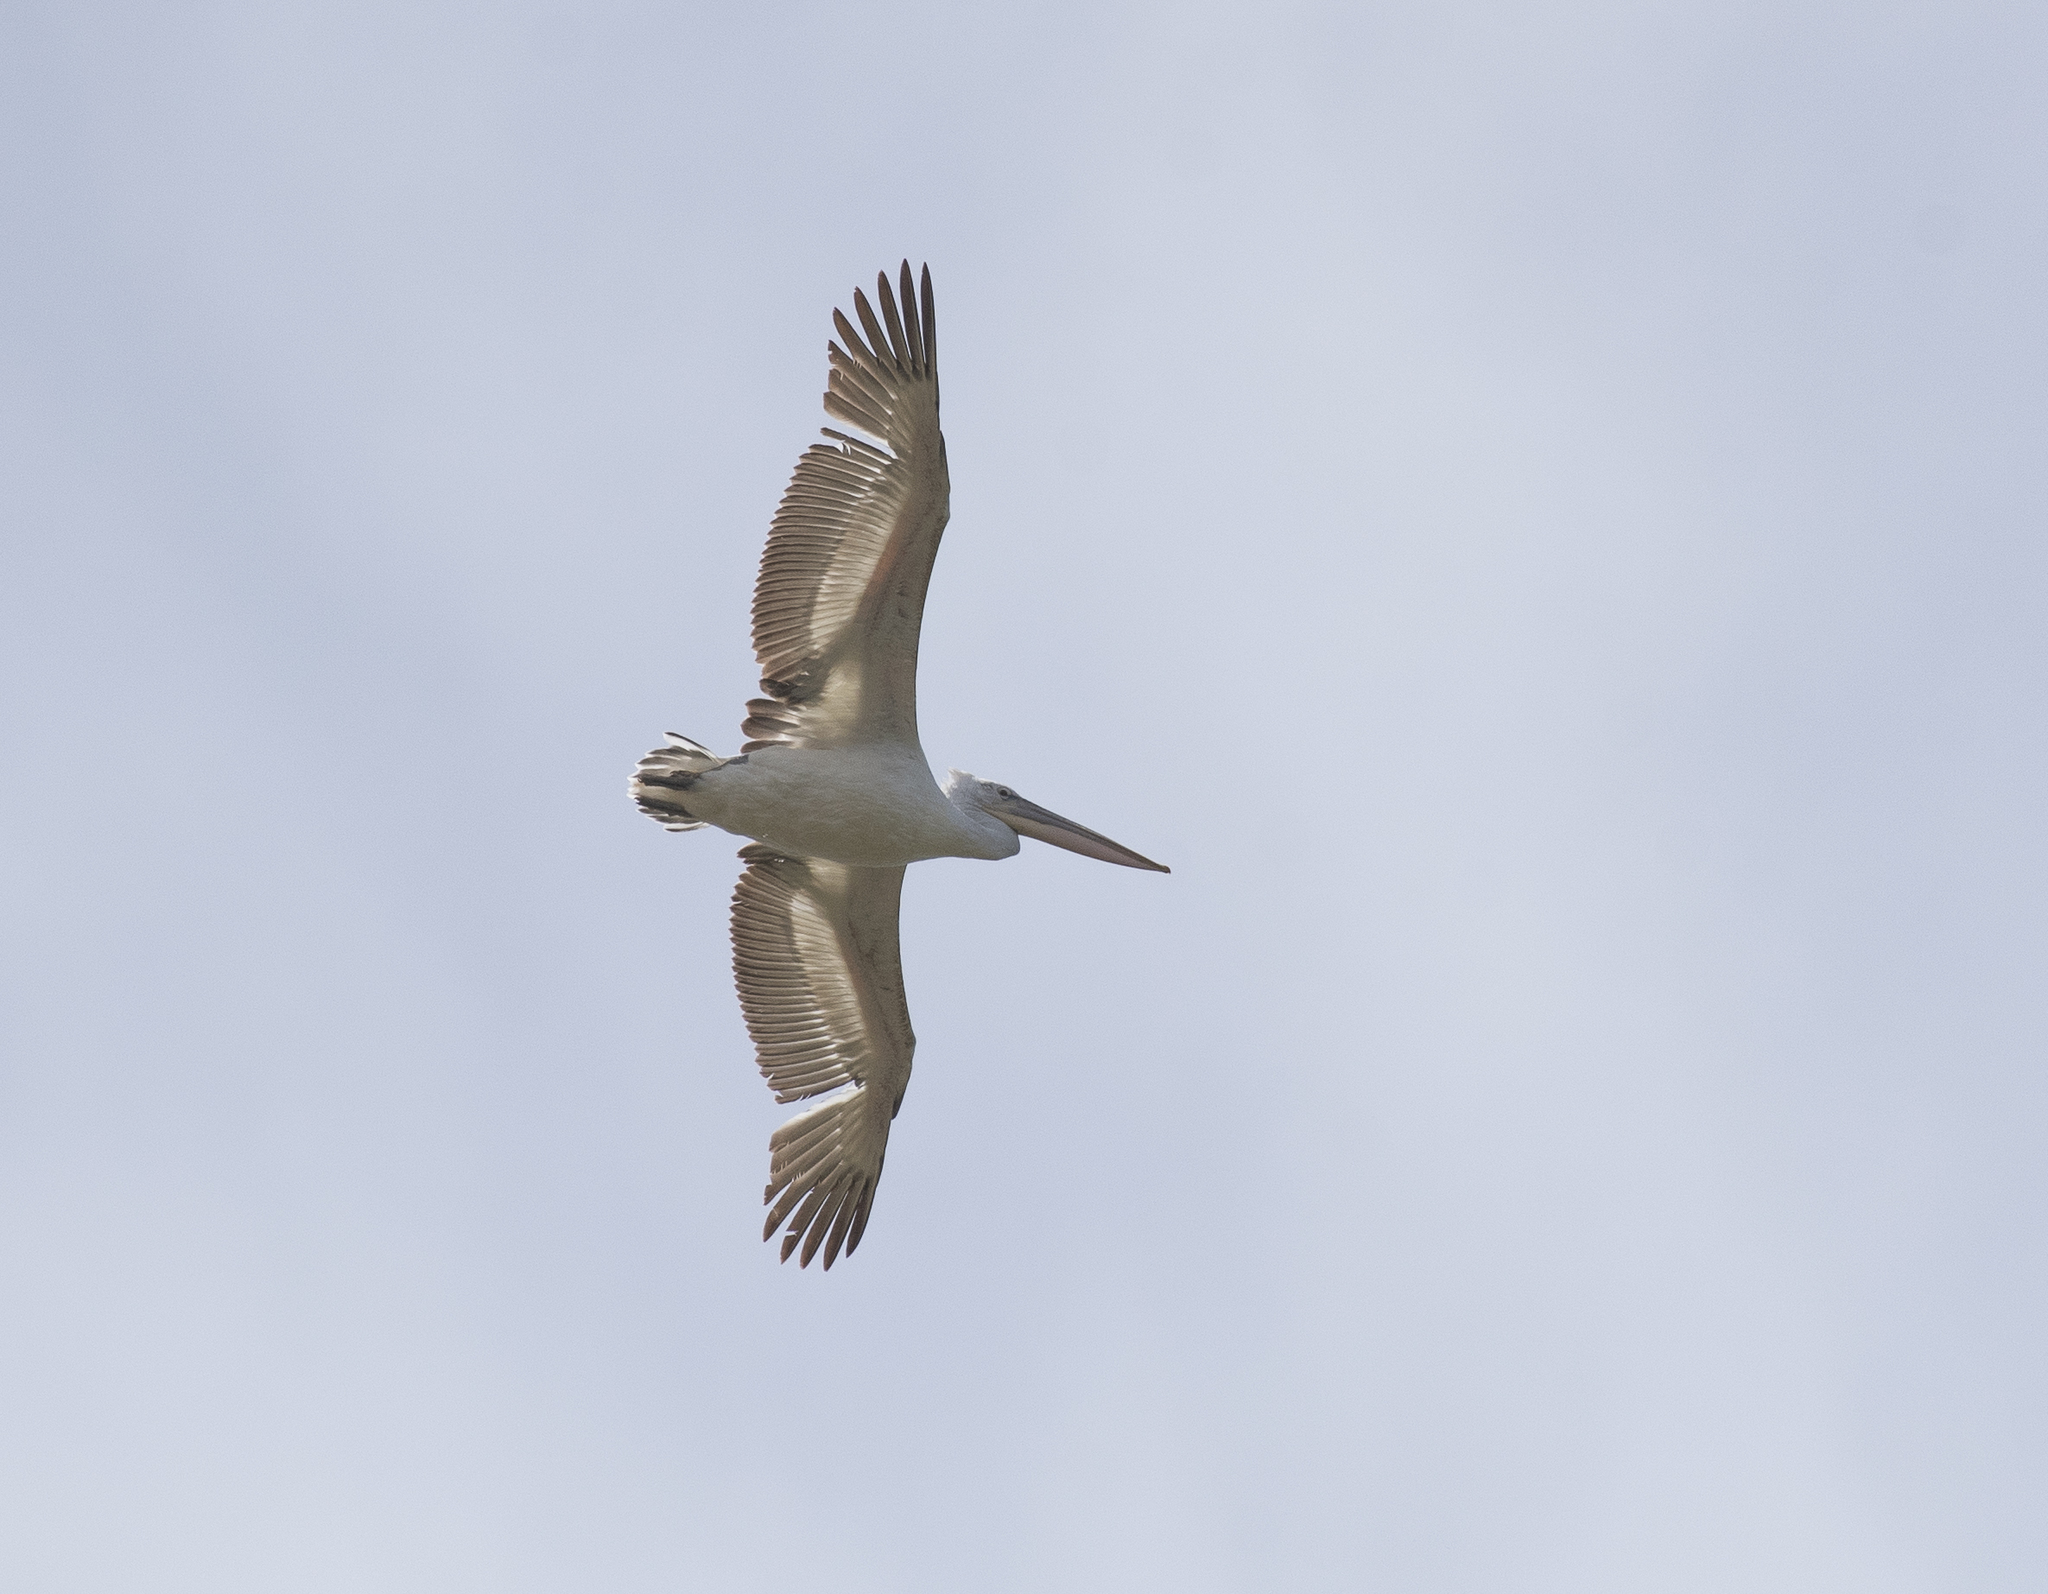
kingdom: Animalia
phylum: Chordata
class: Aves
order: Pelecaniformes
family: Pelecanidae
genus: Pelecanus
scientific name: Pelecanus crispus
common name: Dalmatian pelican
